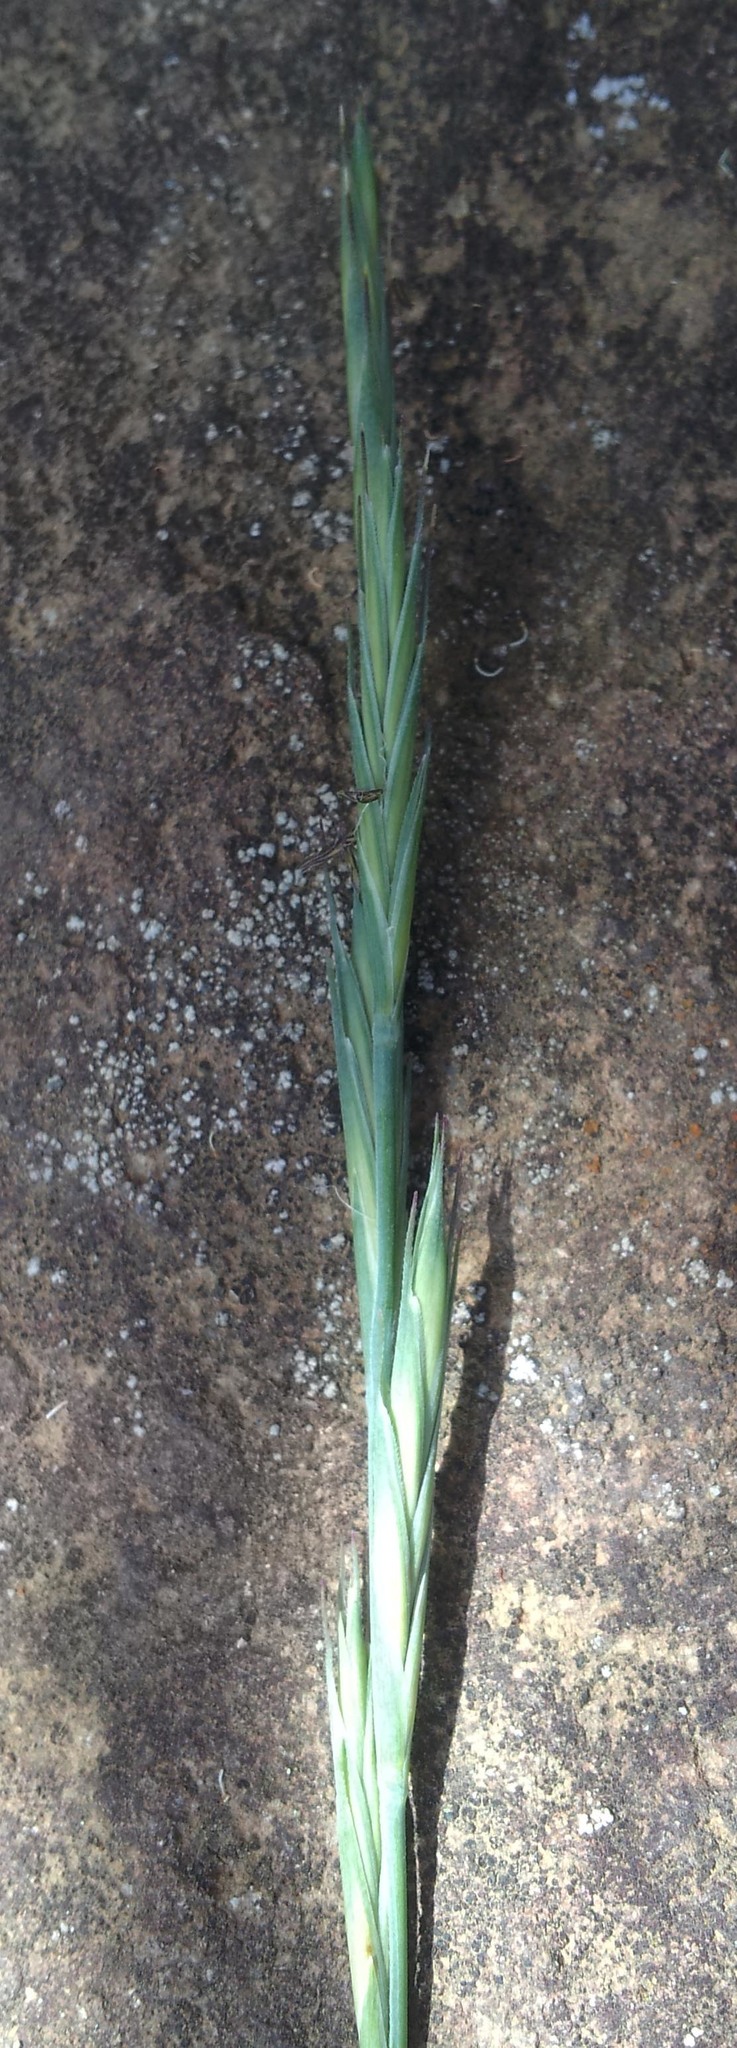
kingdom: Plantae
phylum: Tracheophyta
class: Liliopsida
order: Poales
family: Poaceae
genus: Anthosachne
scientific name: Anthosachne kingiana
